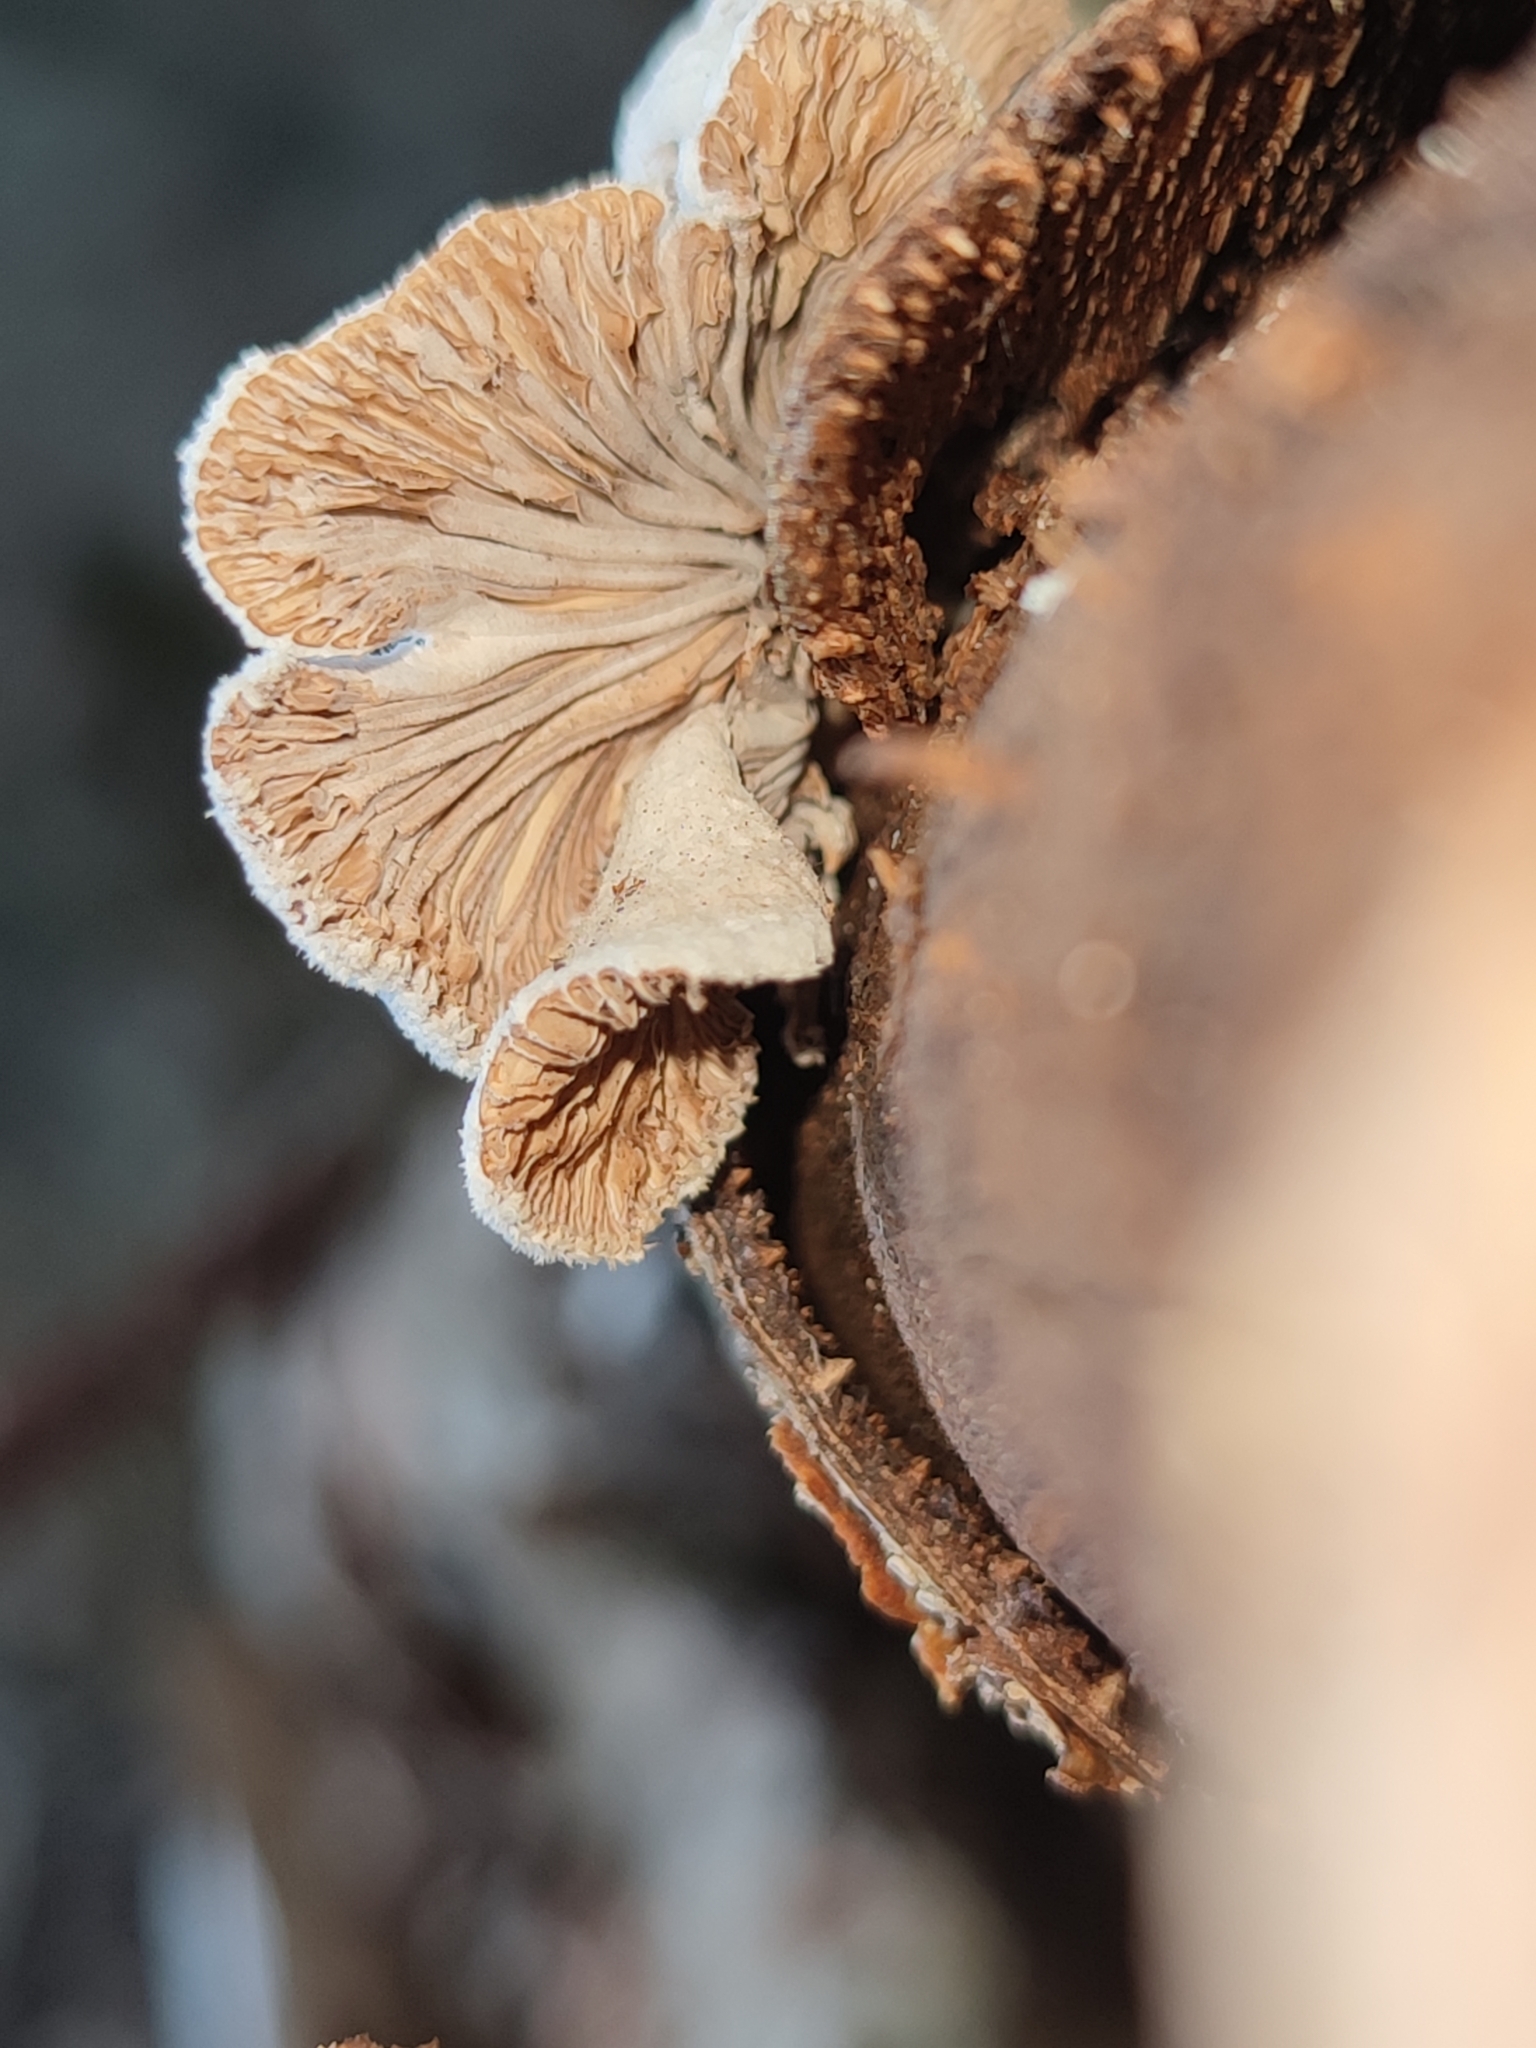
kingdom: Fungi
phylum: Basidiomycota
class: Agaricomycetes
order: Agaricales
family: Schizophyllaceae
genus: Schizophyllum
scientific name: Schizophyllum commune
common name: Common porecrust
